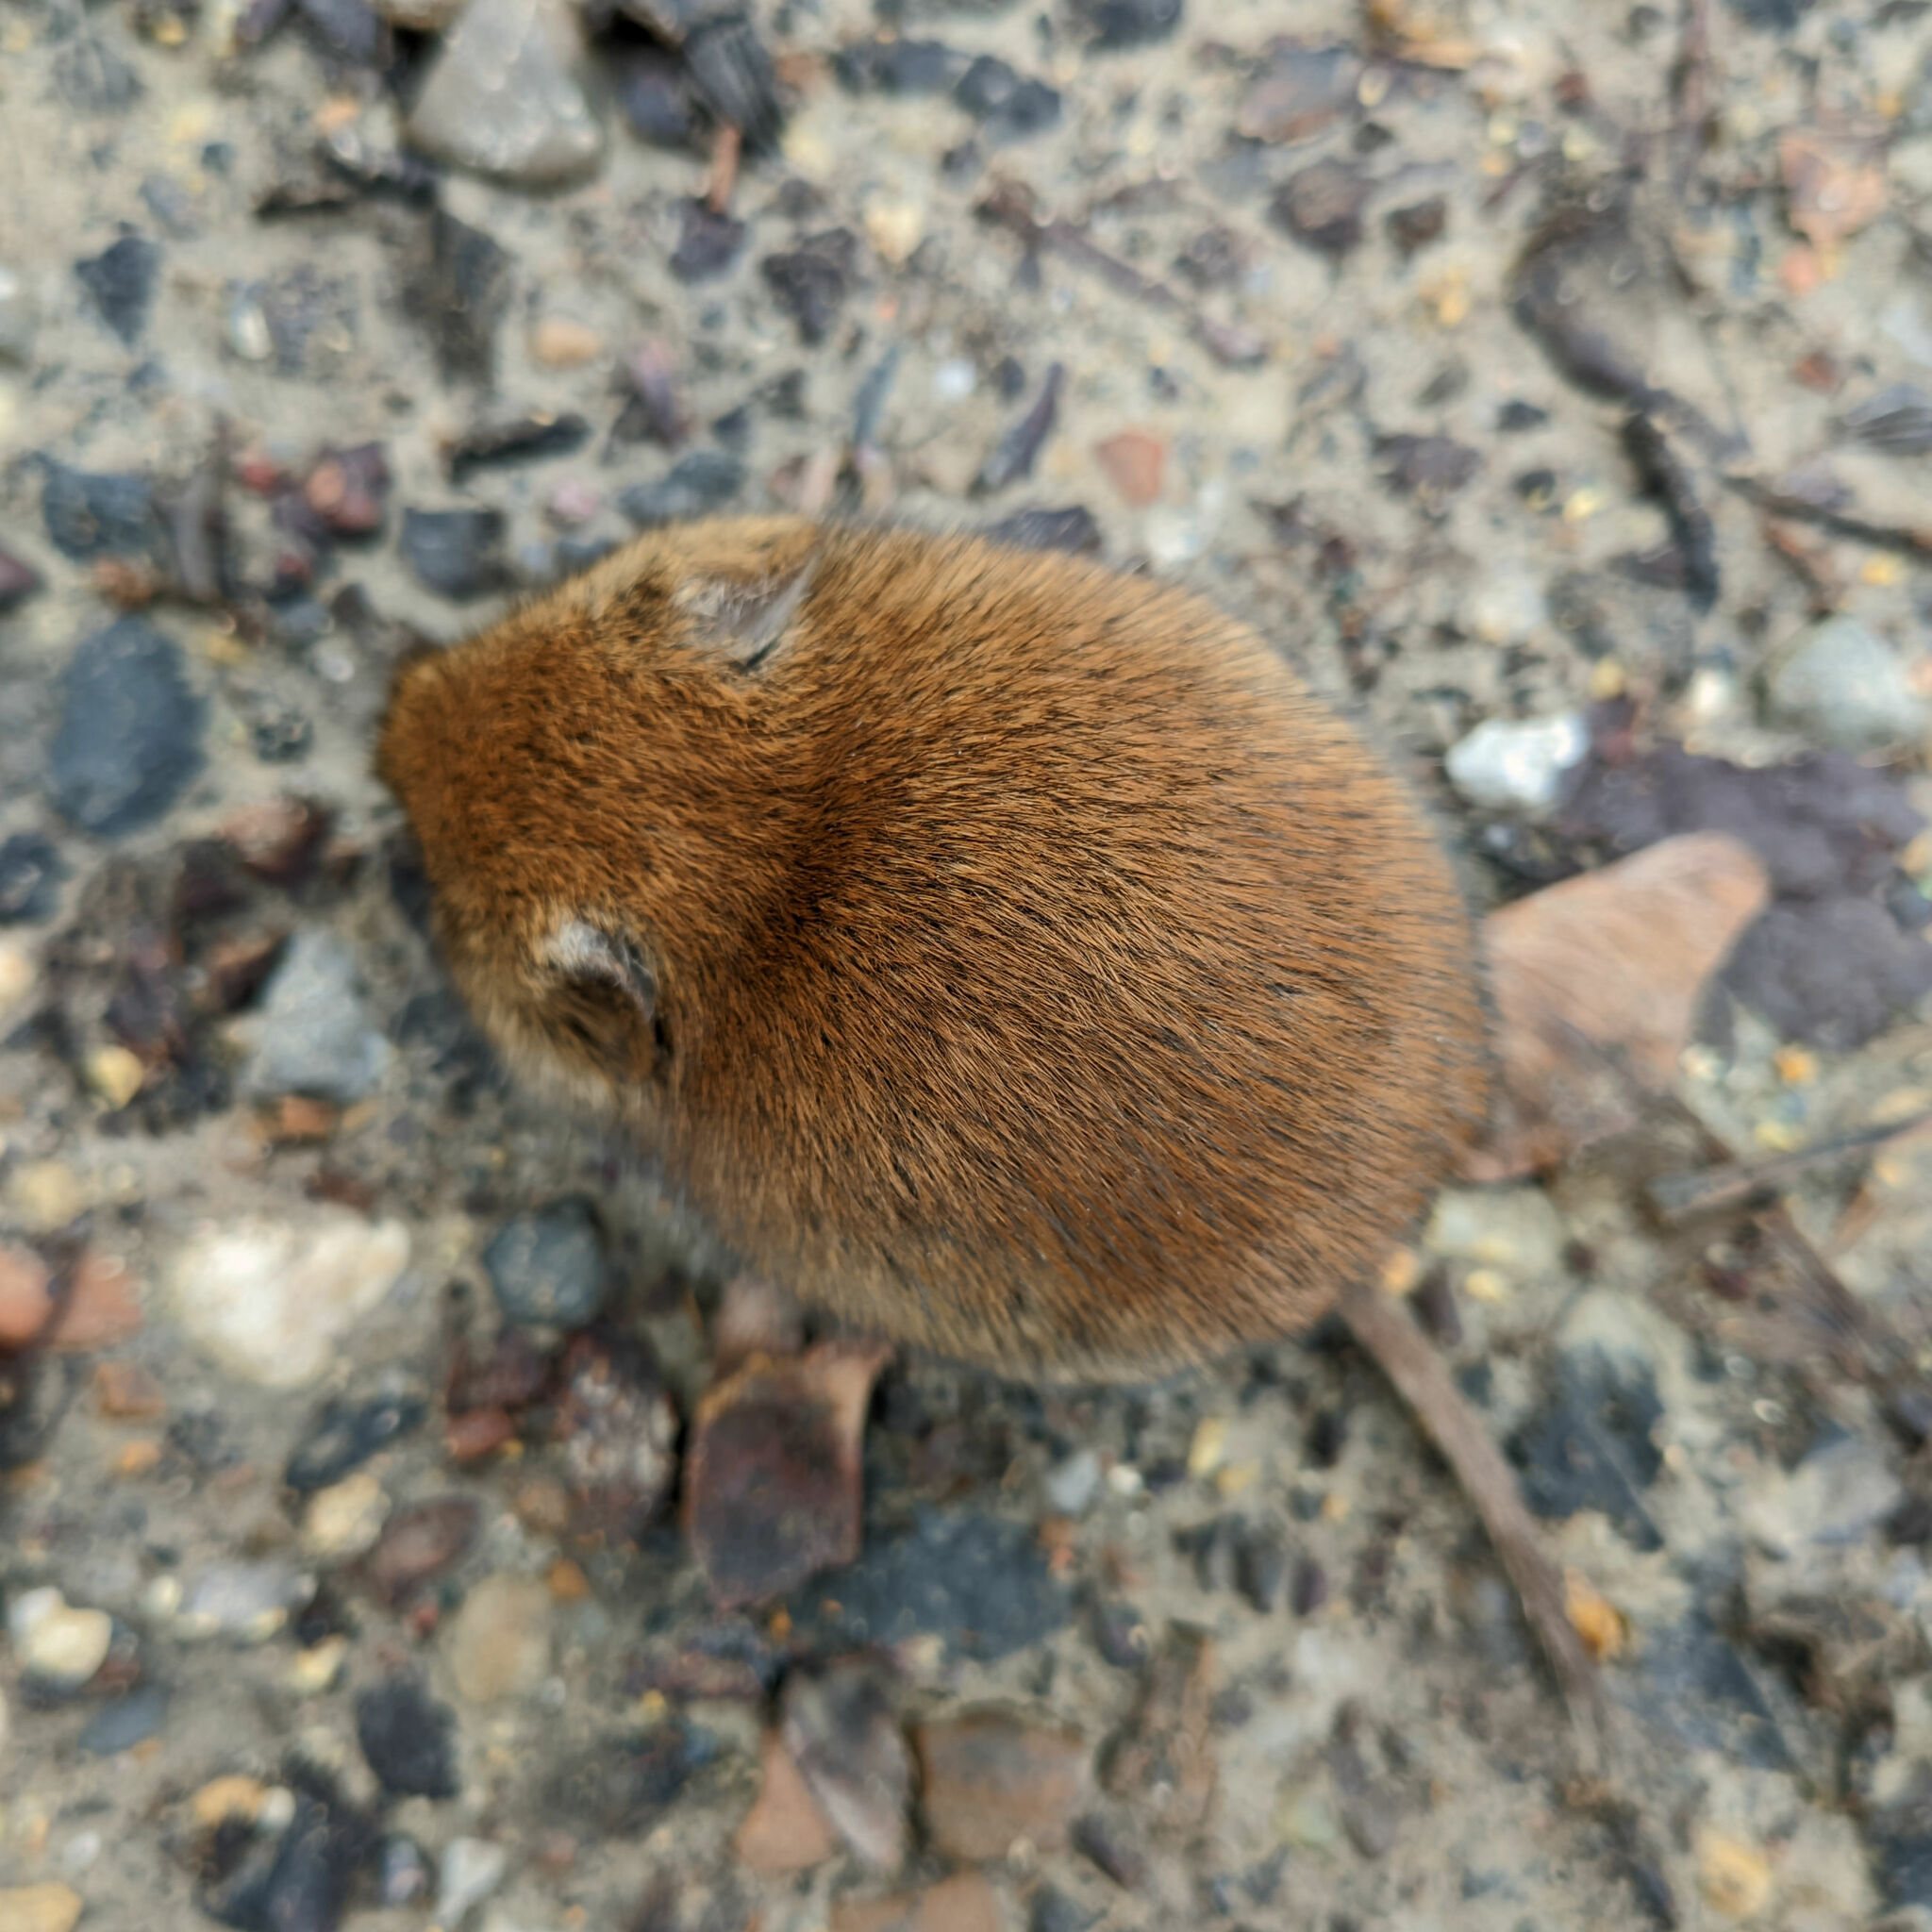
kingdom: Animalia
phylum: Chordata
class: Mammalia
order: Rodentia
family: Cricetidae
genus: Myodes
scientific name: Myodes glareolus
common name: Bank vole
